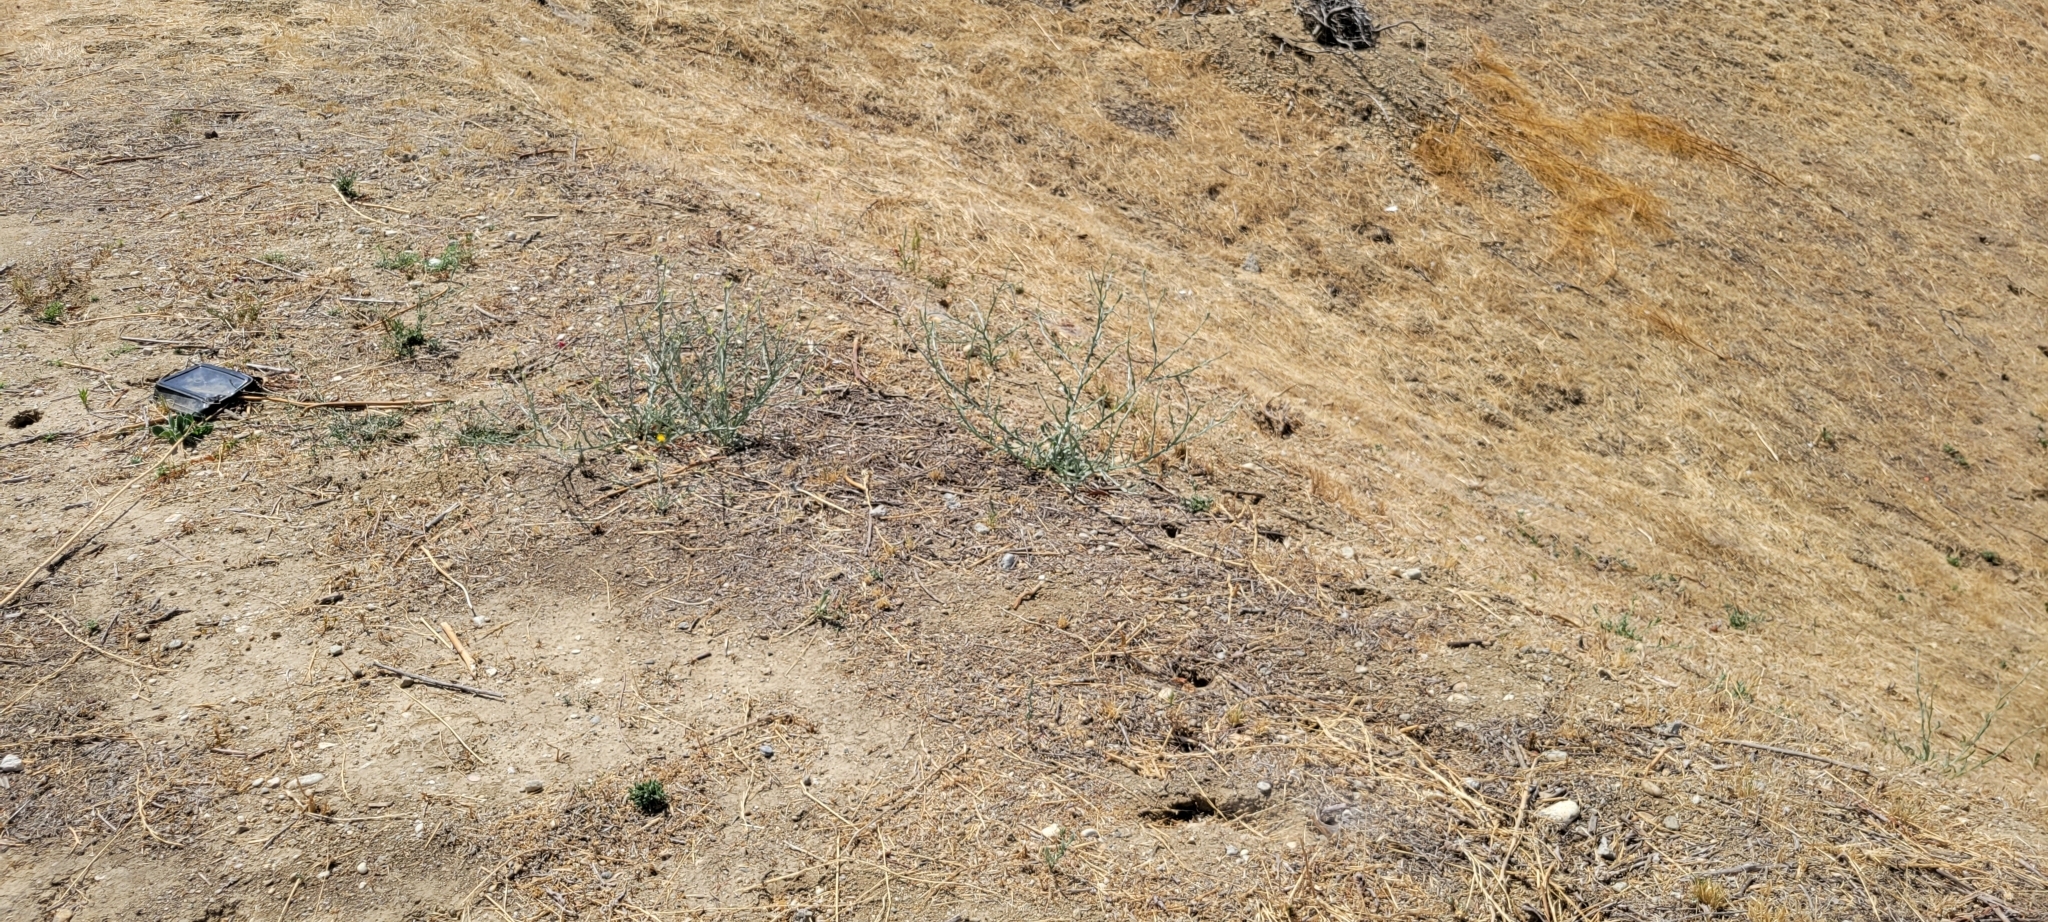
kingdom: Plantae
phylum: Tracheophyta
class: Magnoliopsida
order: Asterales
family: Asteraceae
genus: Centaurea
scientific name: Centaurea solstitialis
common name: Yellow star-thistle
